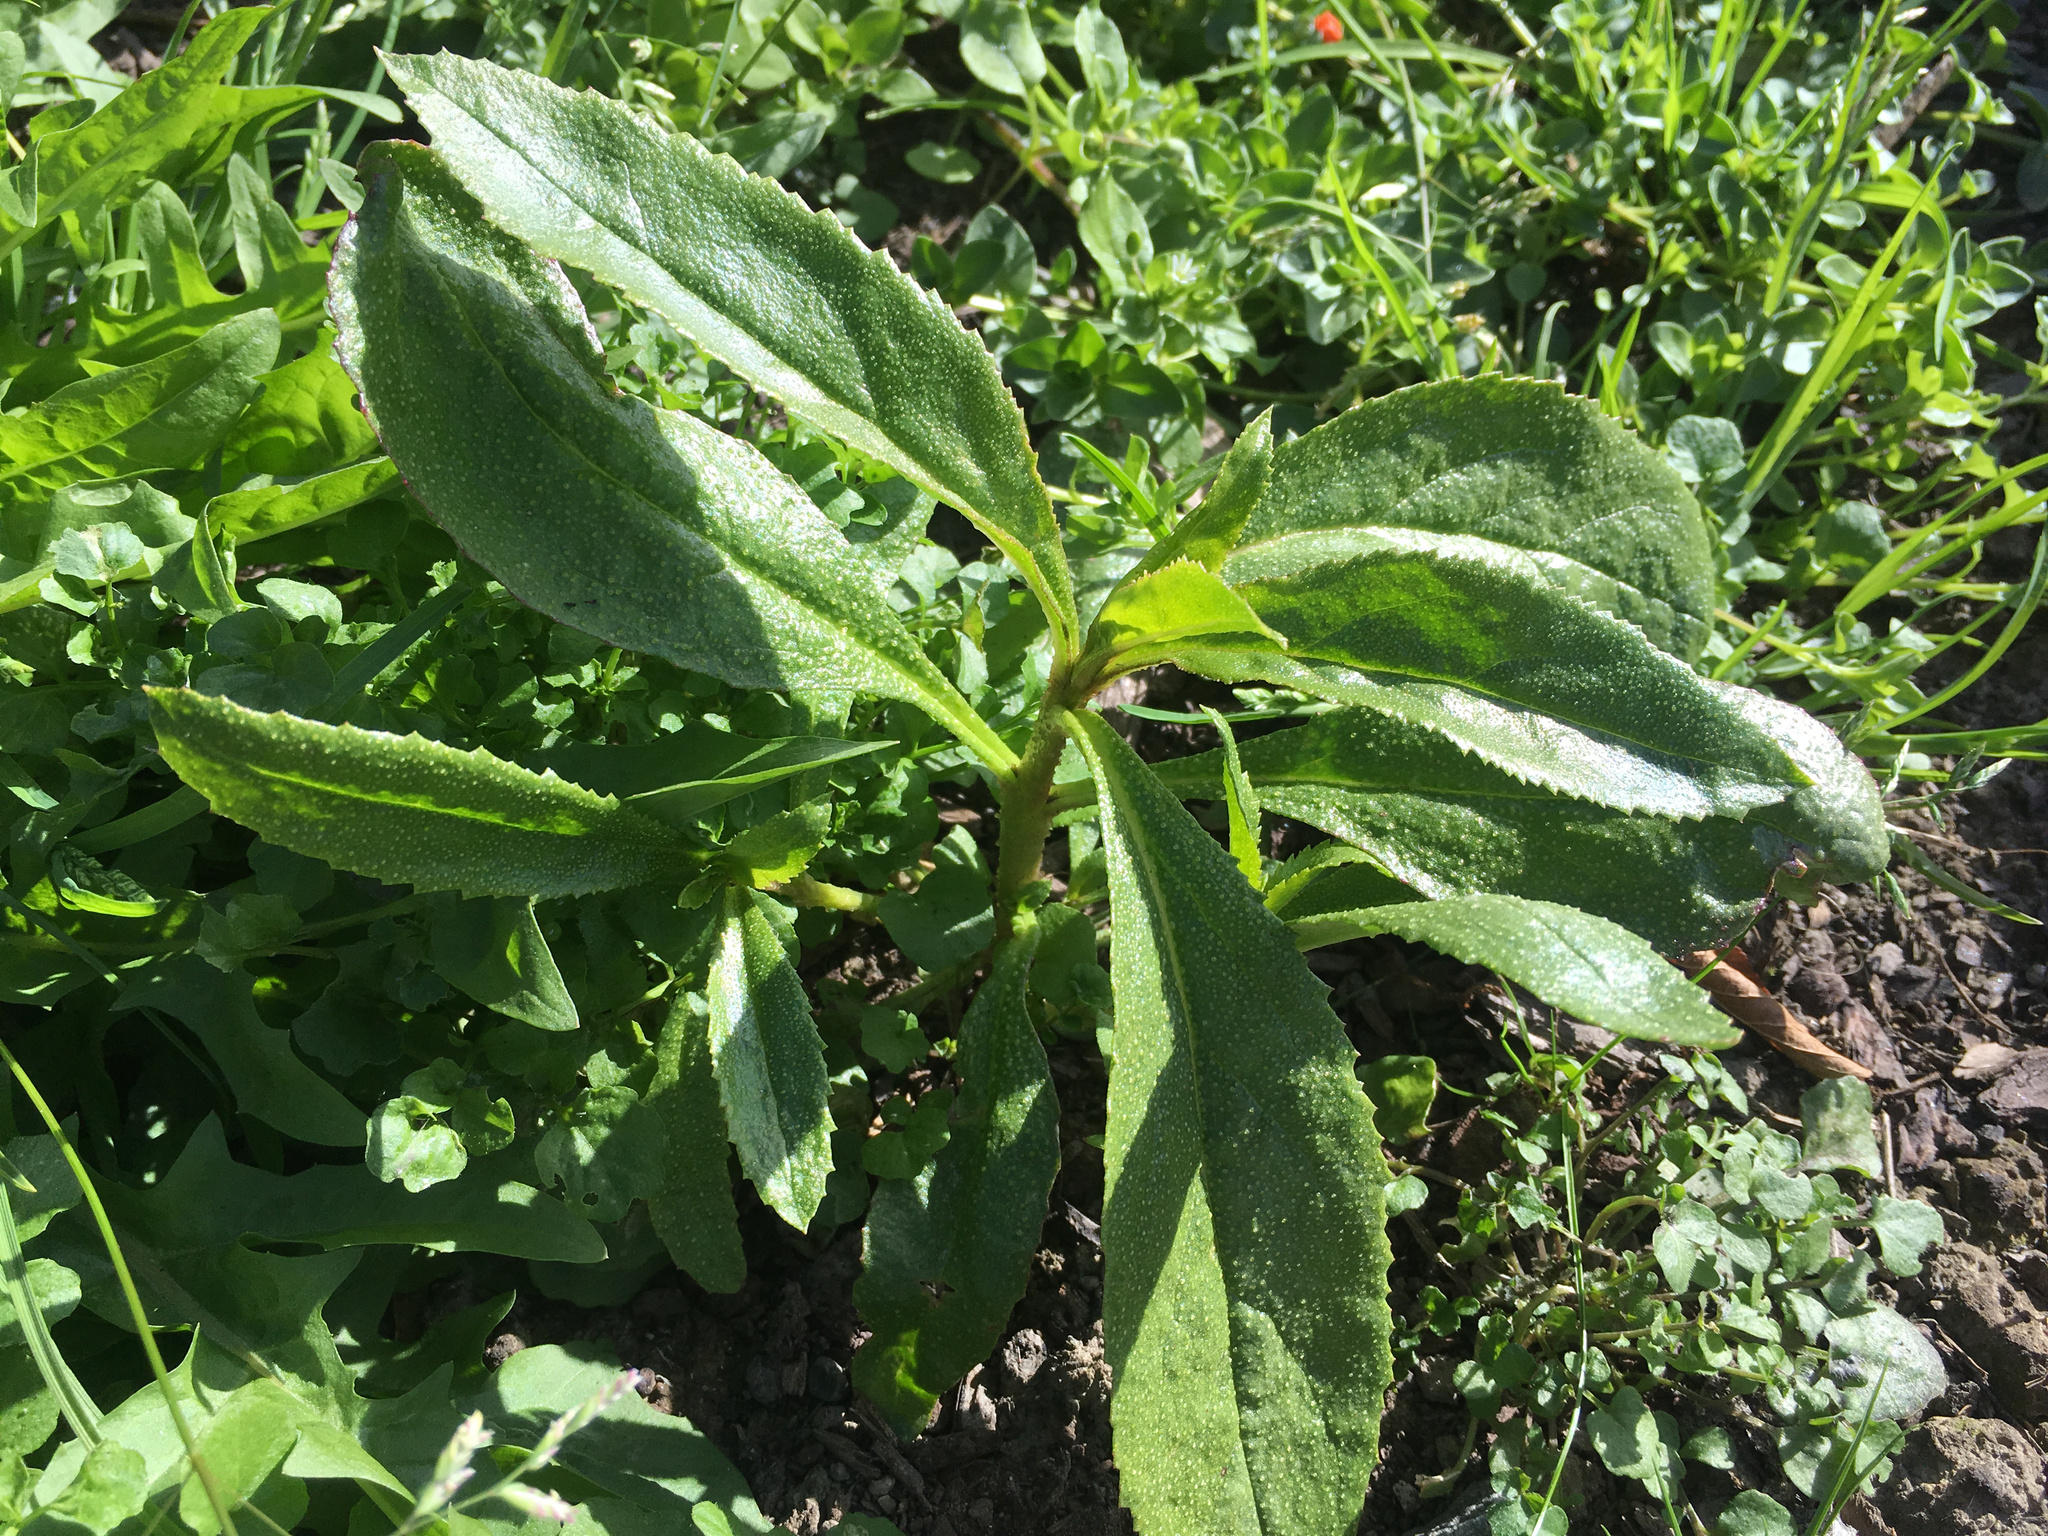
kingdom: Plantae
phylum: Tracheophyta
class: Magnoliopsida
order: Lamiales
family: Scrophulariaceae
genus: Myoporum
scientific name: Myoporum laetum
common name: Ngaio tree
